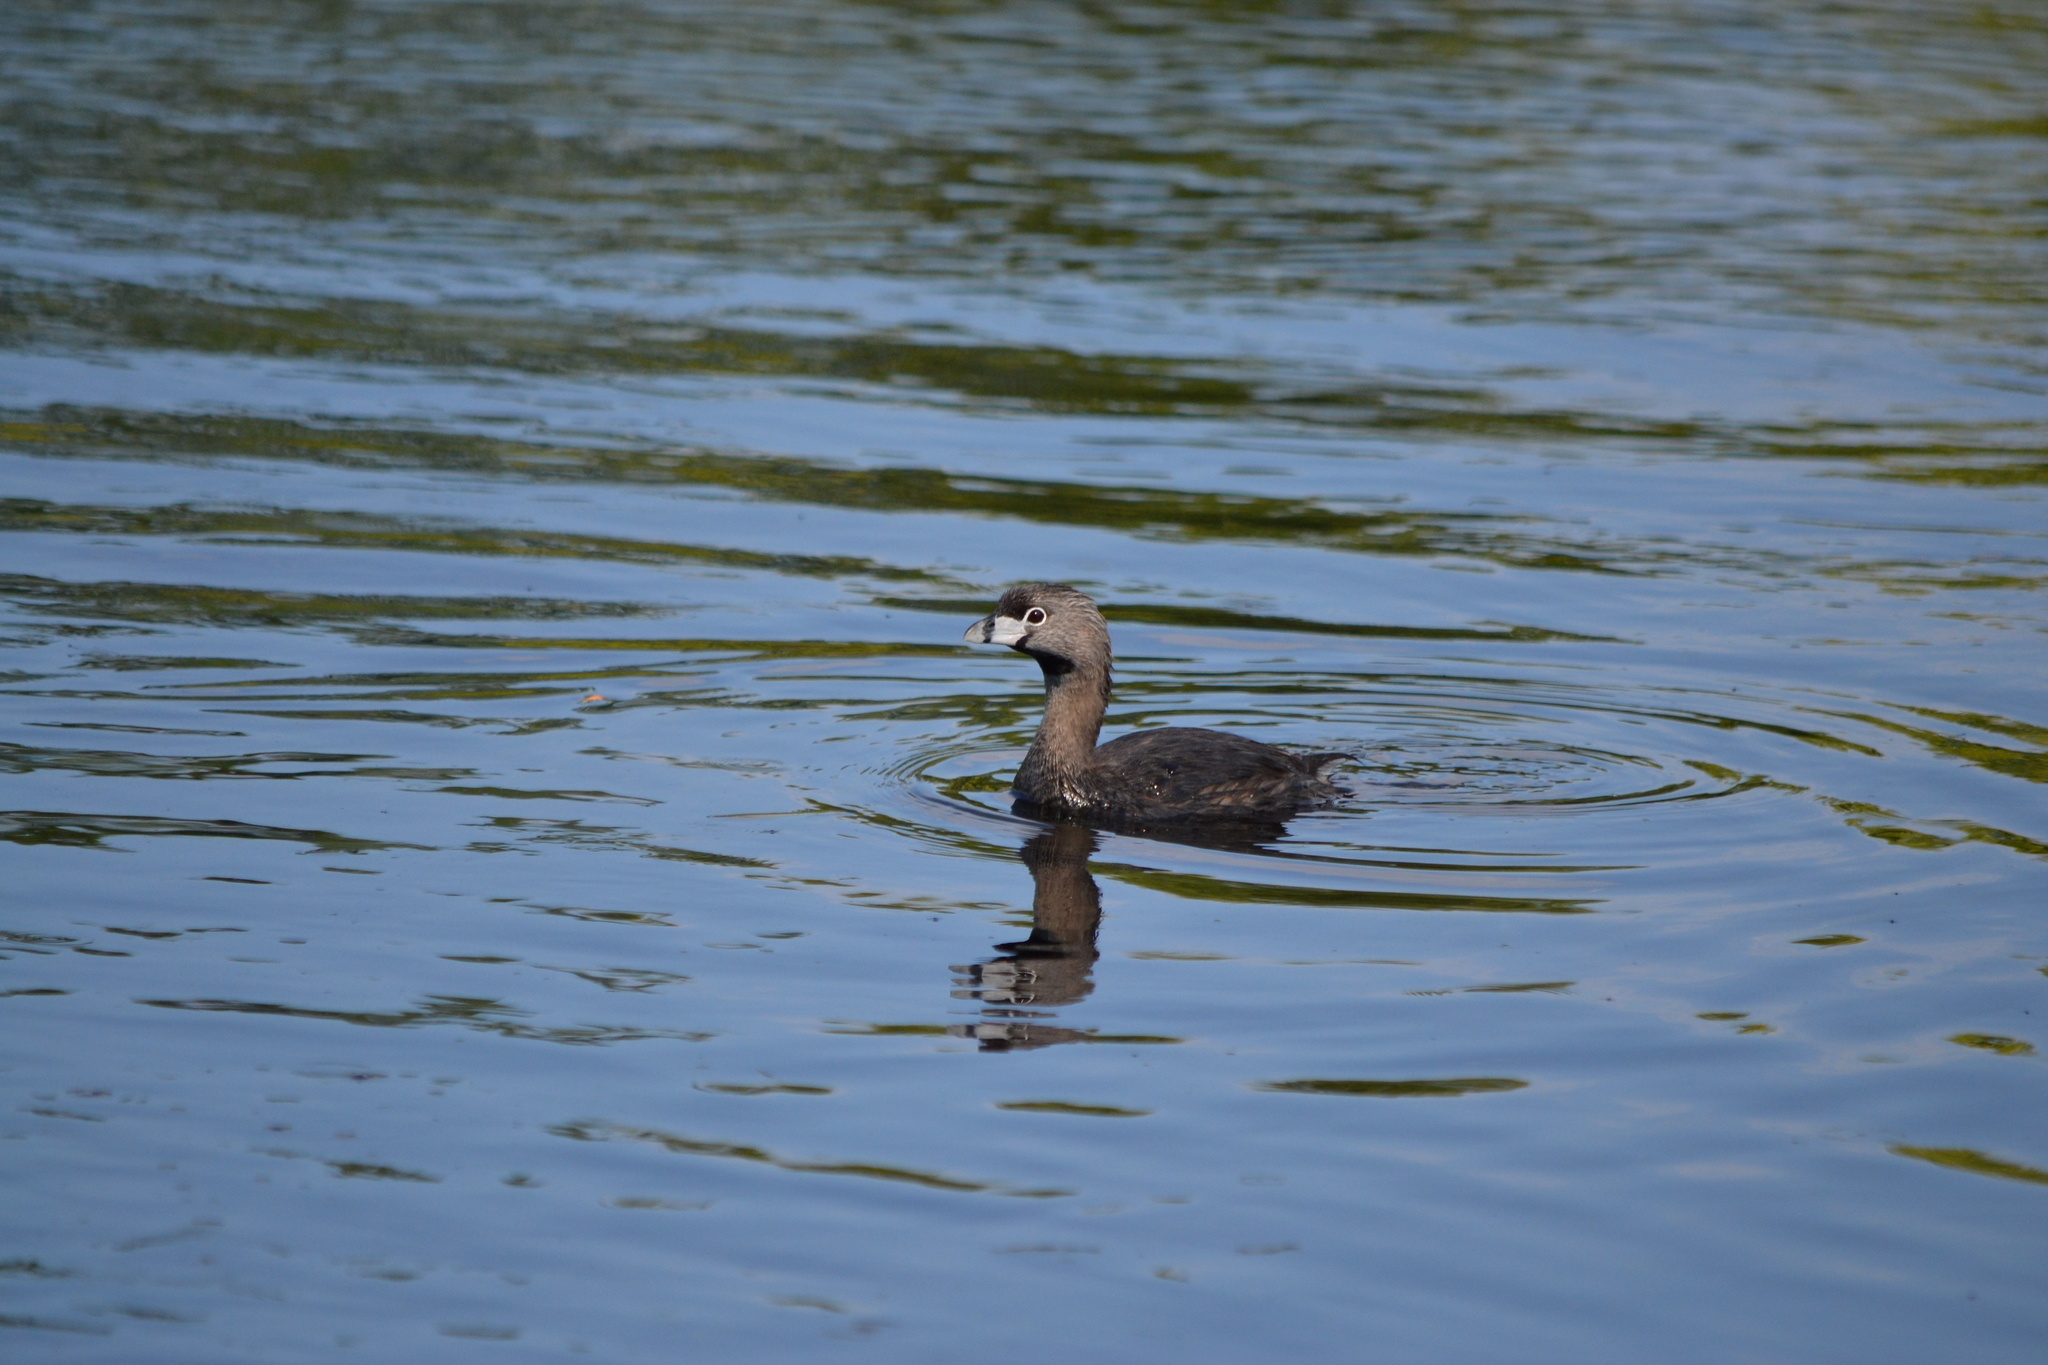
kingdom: Animalia
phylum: Chordata
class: Aves
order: Podicipediformes
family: Podicipedidae
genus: Podilymbus
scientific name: Podilymbus podiceps
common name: Pied-billed grebe
